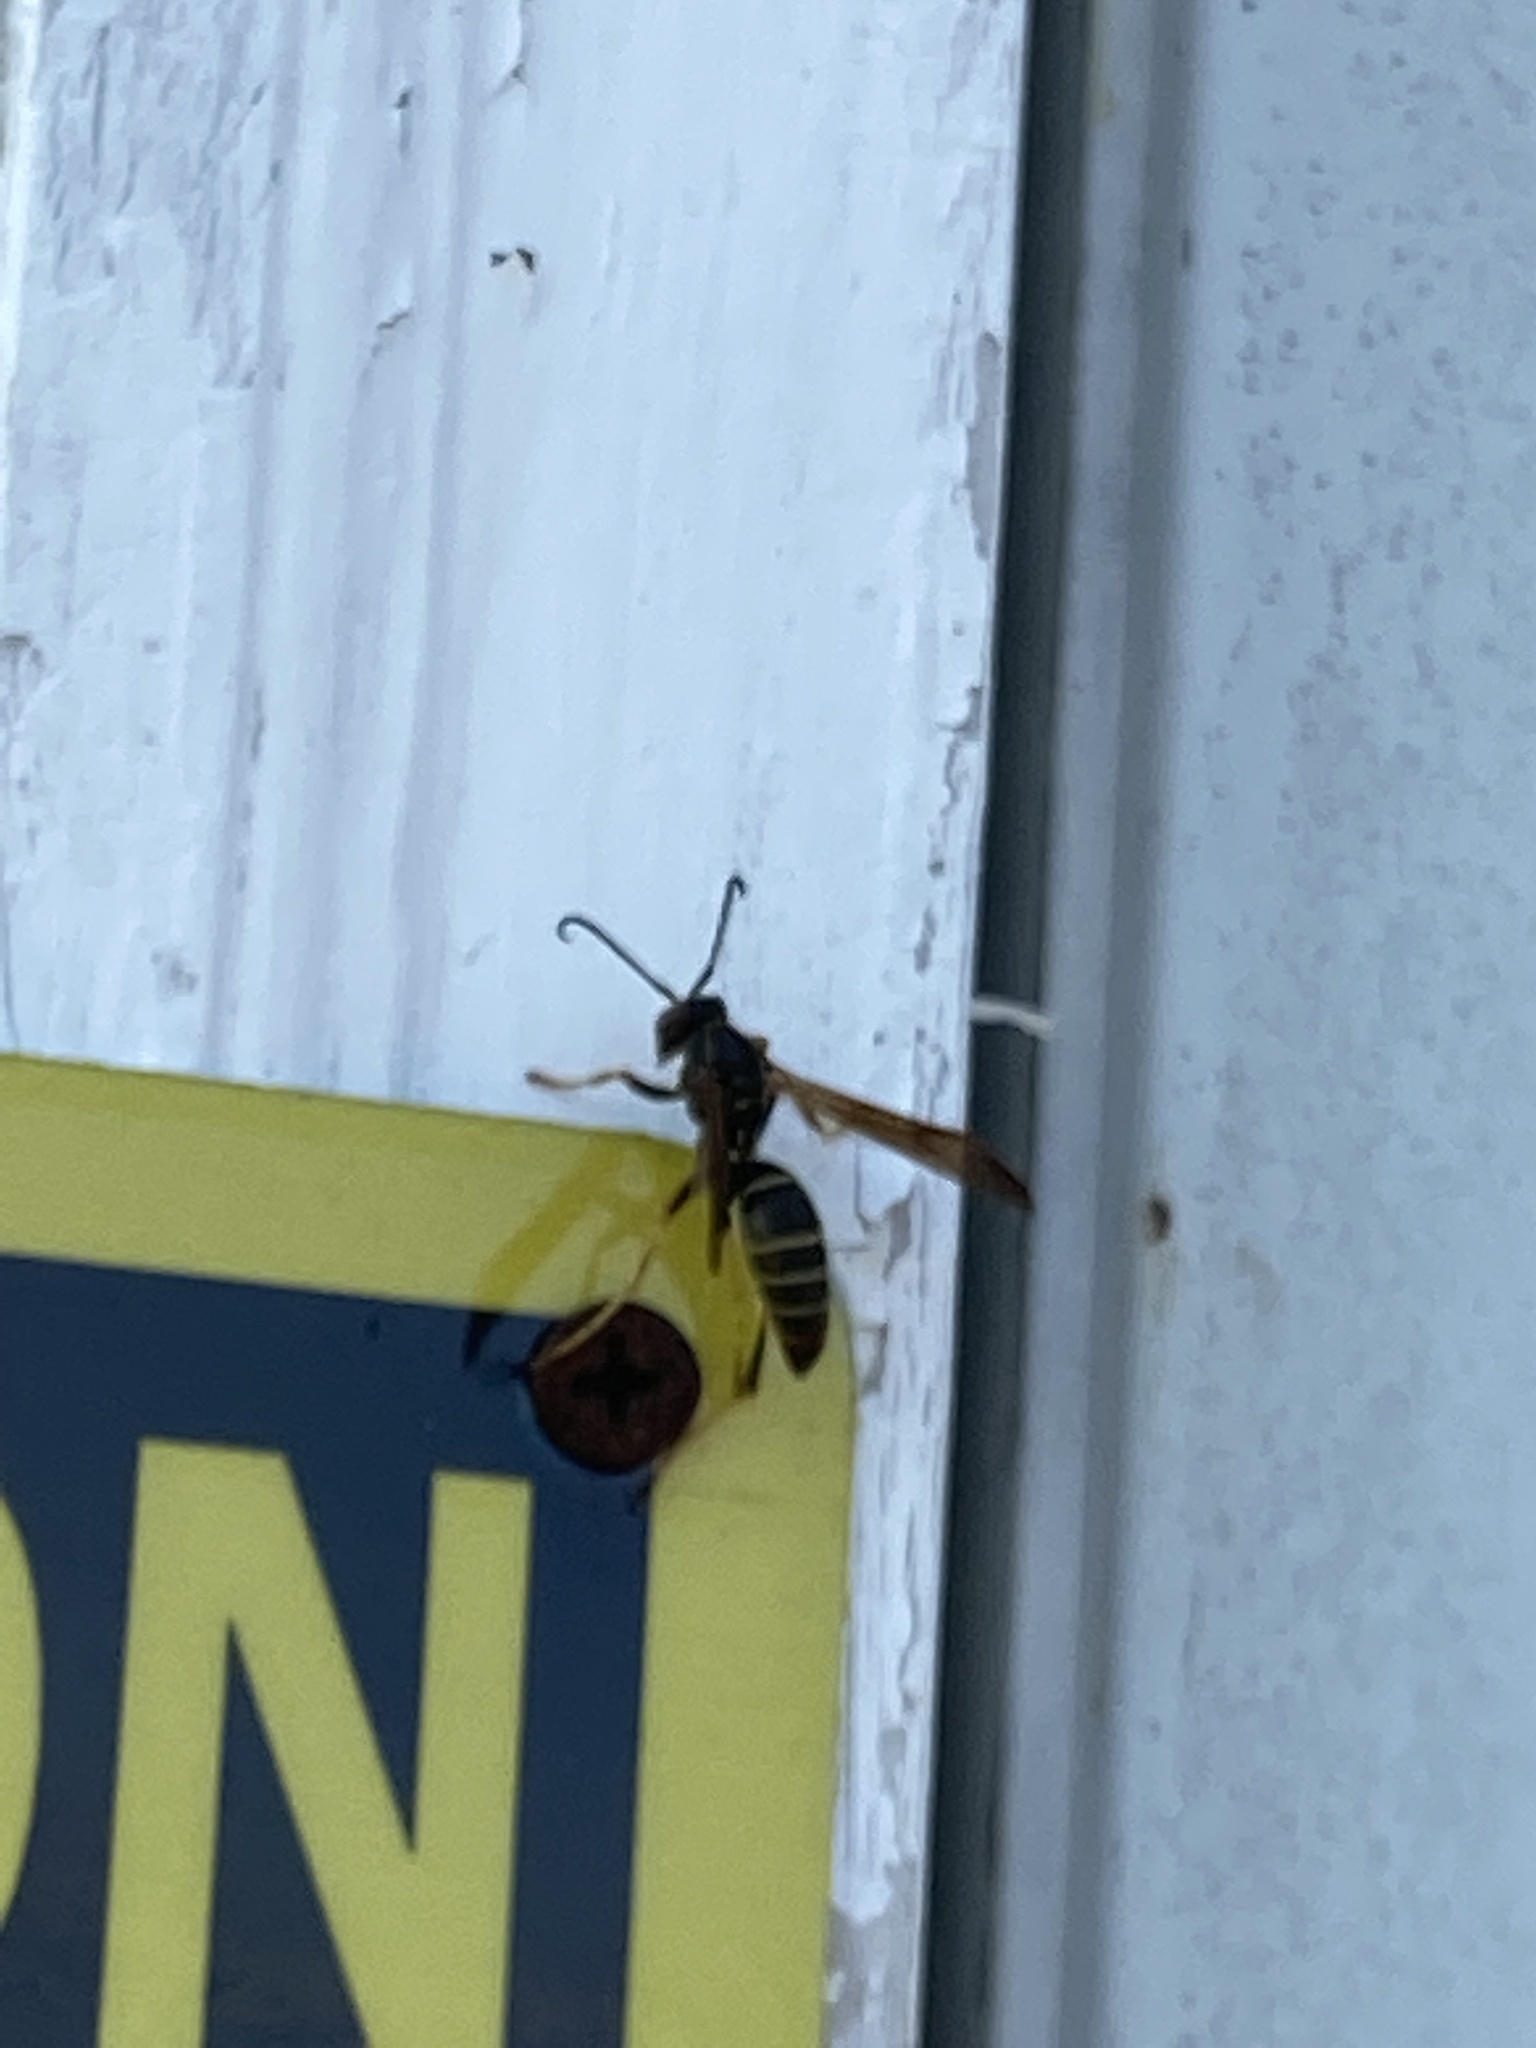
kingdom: Animalia
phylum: Arthropoda
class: Insecta
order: Hymenoptera
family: Eumenidae
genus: Polistes
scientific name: Polistes fuscatus
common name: Dark paper wasp
